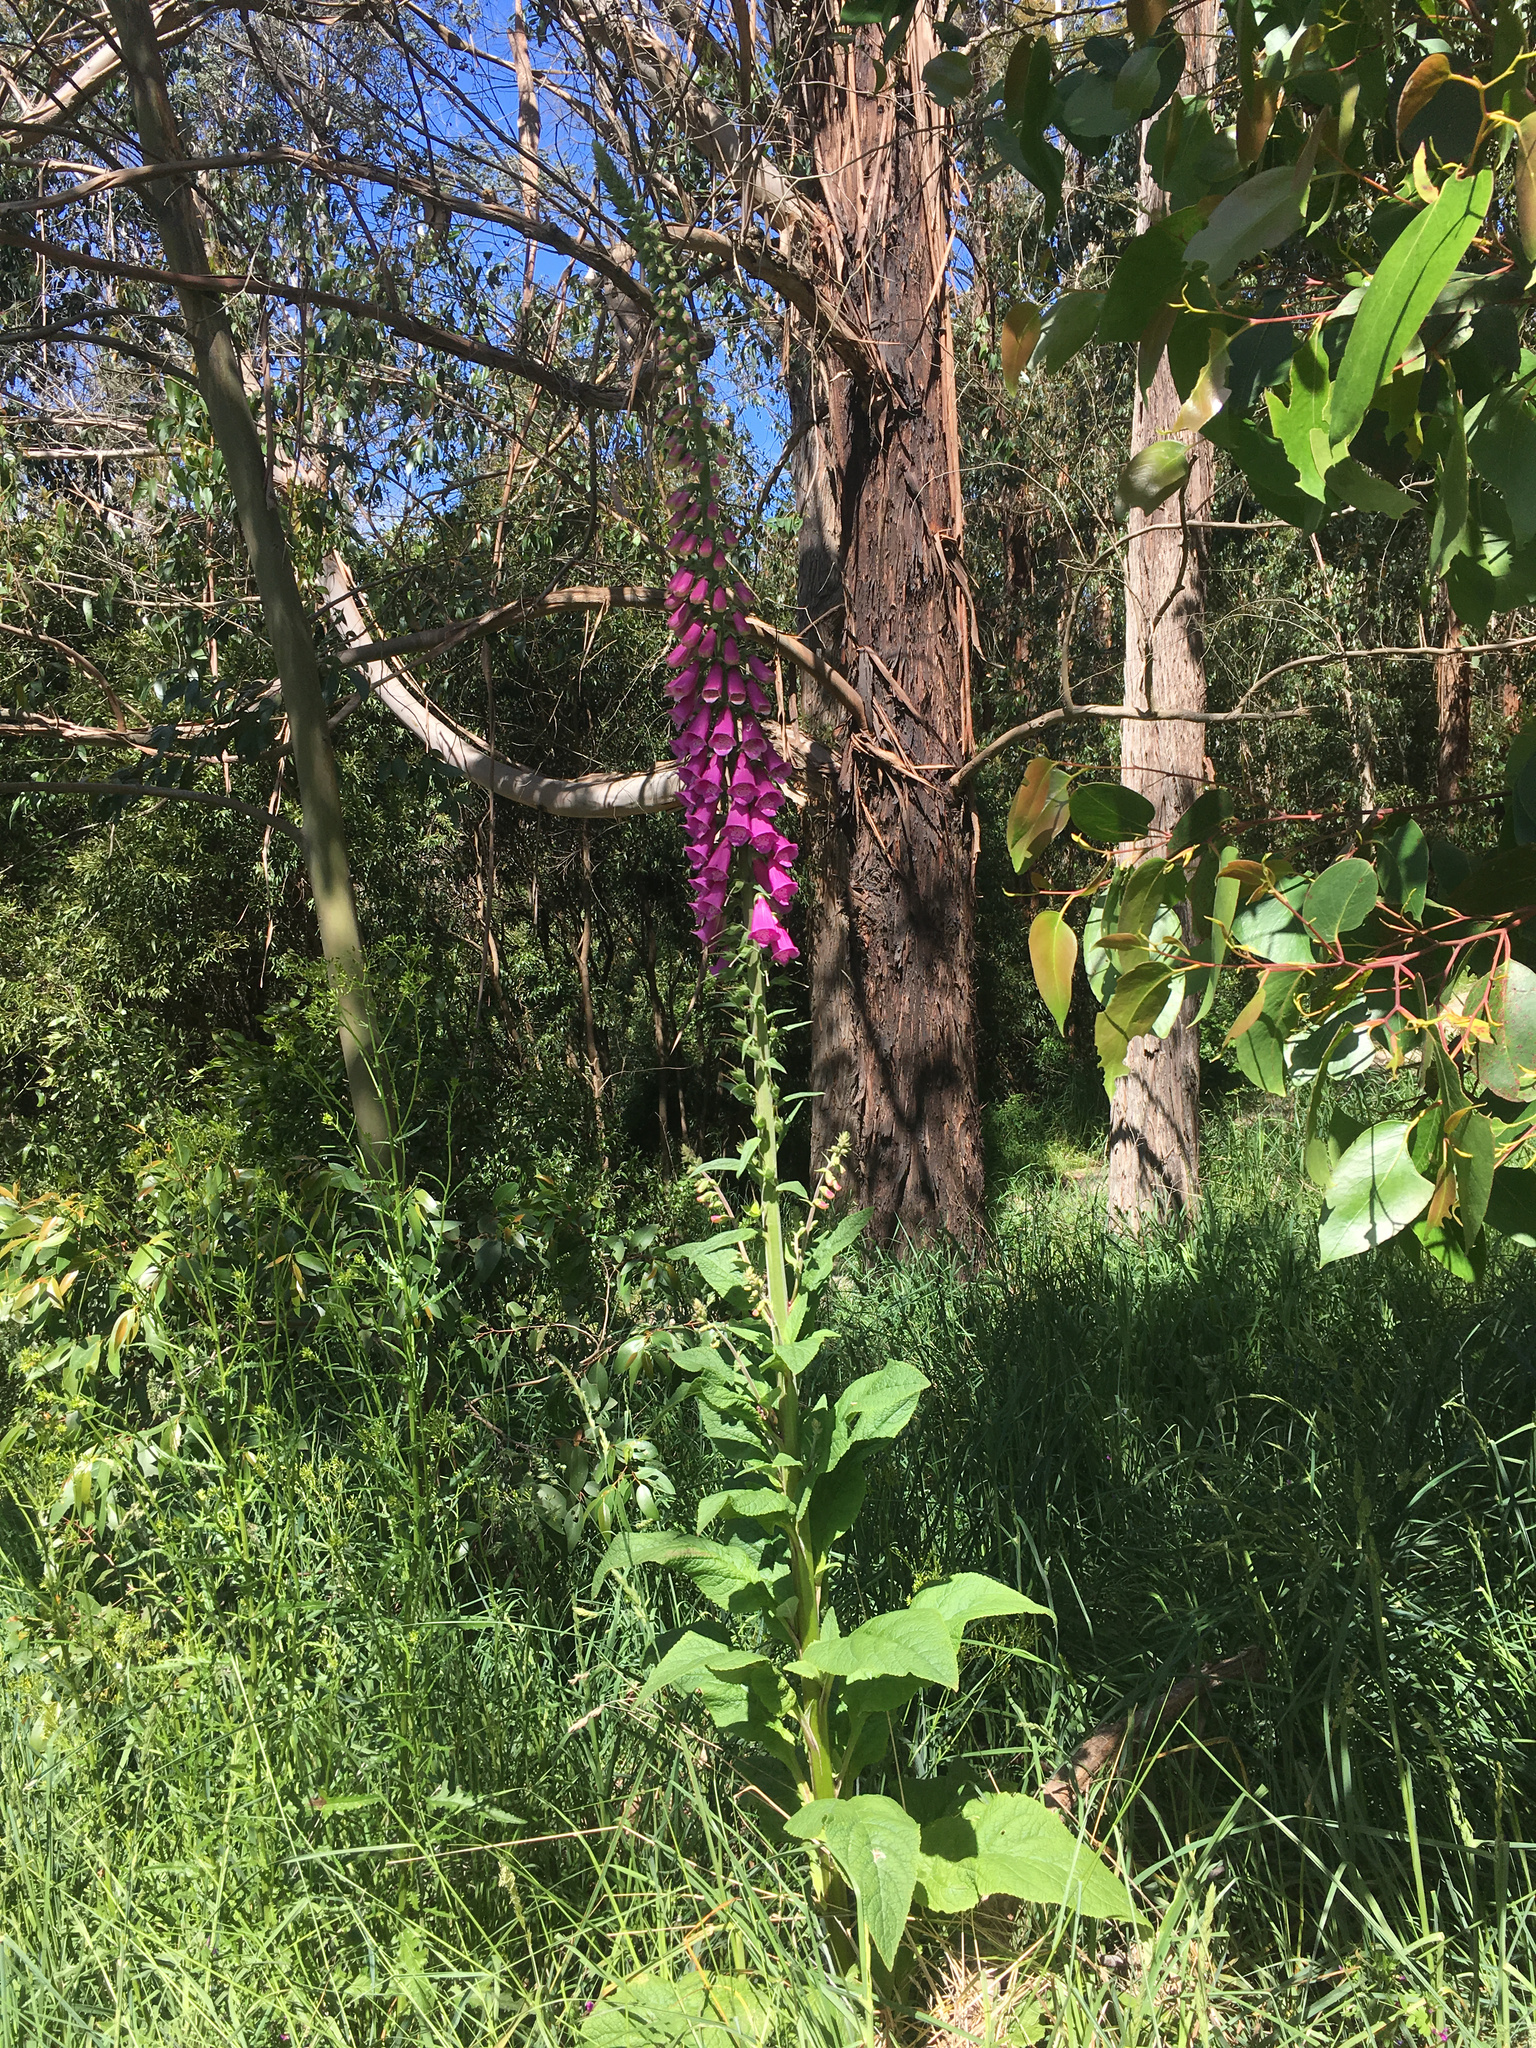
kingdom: Plantae
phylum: Tracheophyta
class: Magnoliopsida
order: Lamiales
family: Plantaginaceae
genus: Digitalis
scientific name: Digitalis purpurea
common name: Foxglove
